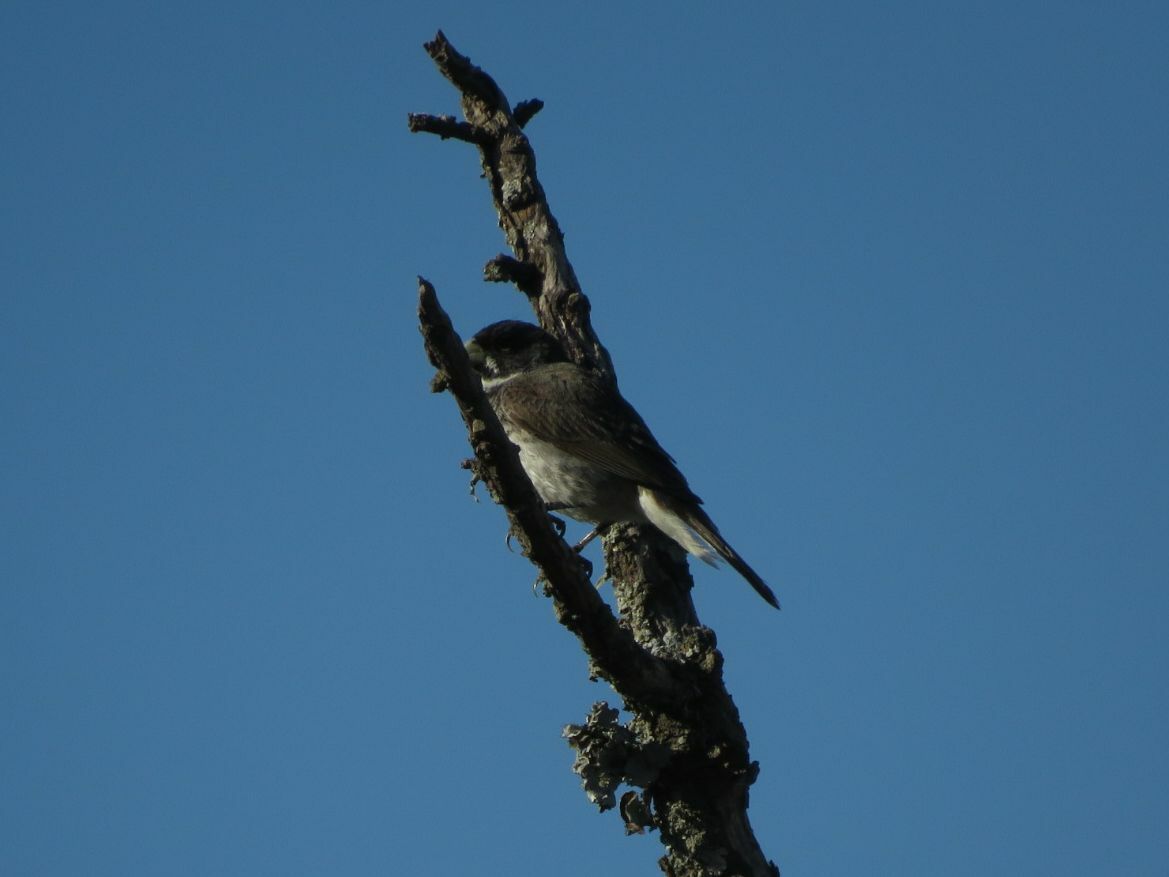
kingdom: Animalia
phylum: Chordata
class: Aves
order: Passeriformes
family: Thraupidae
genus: Sporophila
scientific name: Sporophila caerulescens
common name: Double-collared seedeater
